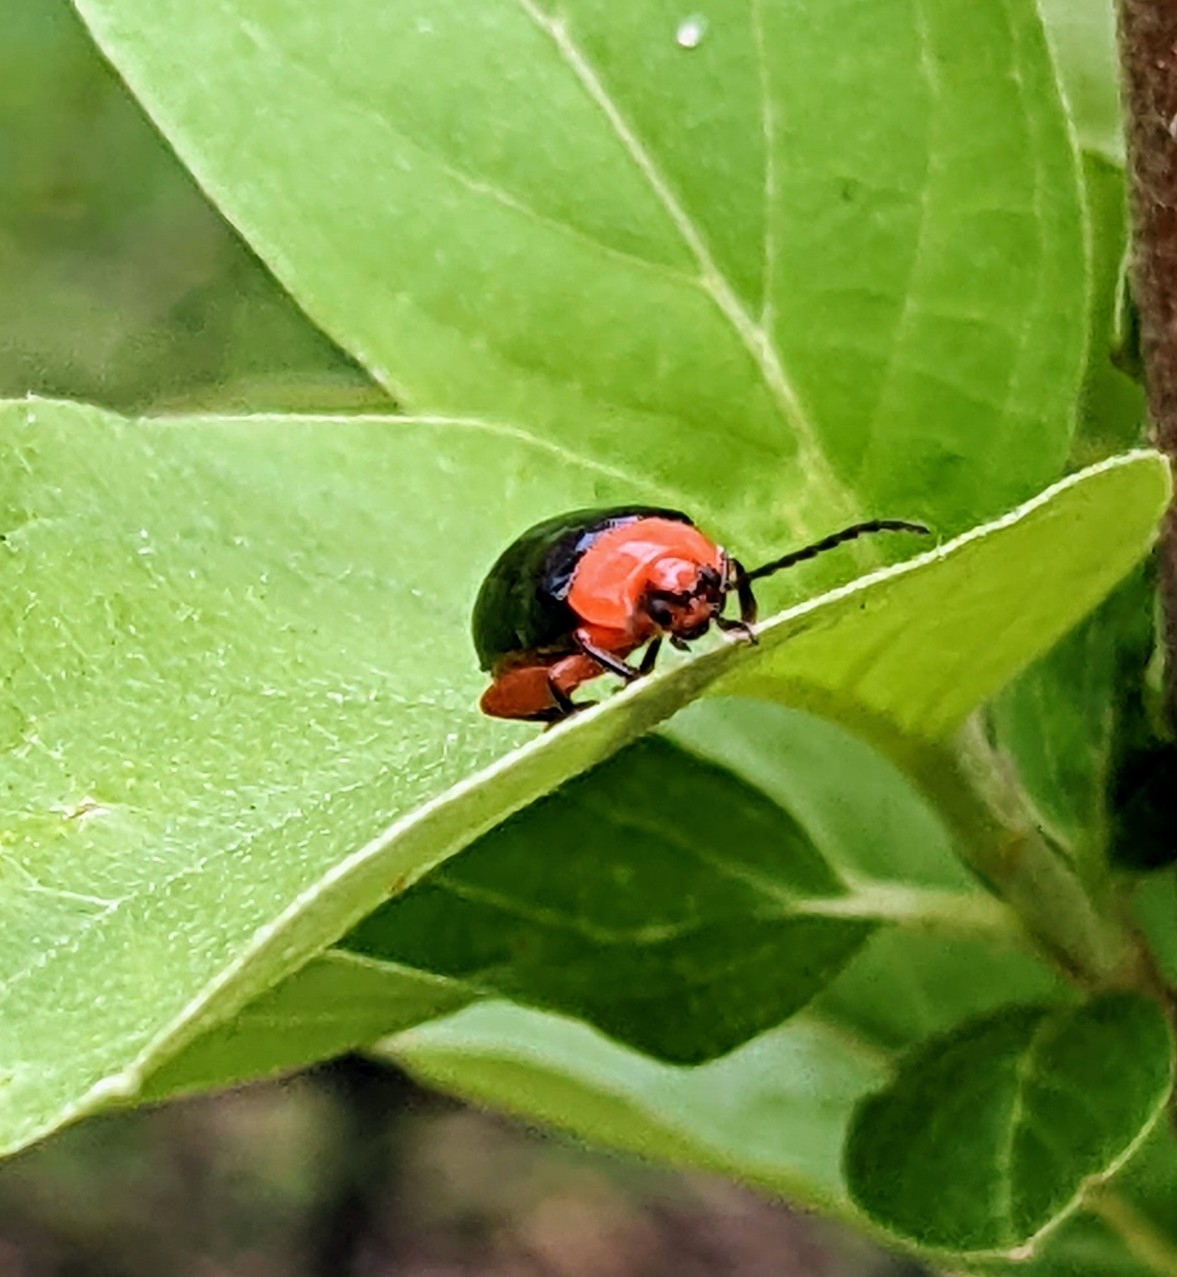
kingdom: Animalia
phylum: Arthropoda
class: Insecta
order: Coleoptera
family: Chrysomelidae
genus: Asphaera
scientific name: Asphaera lustrans
